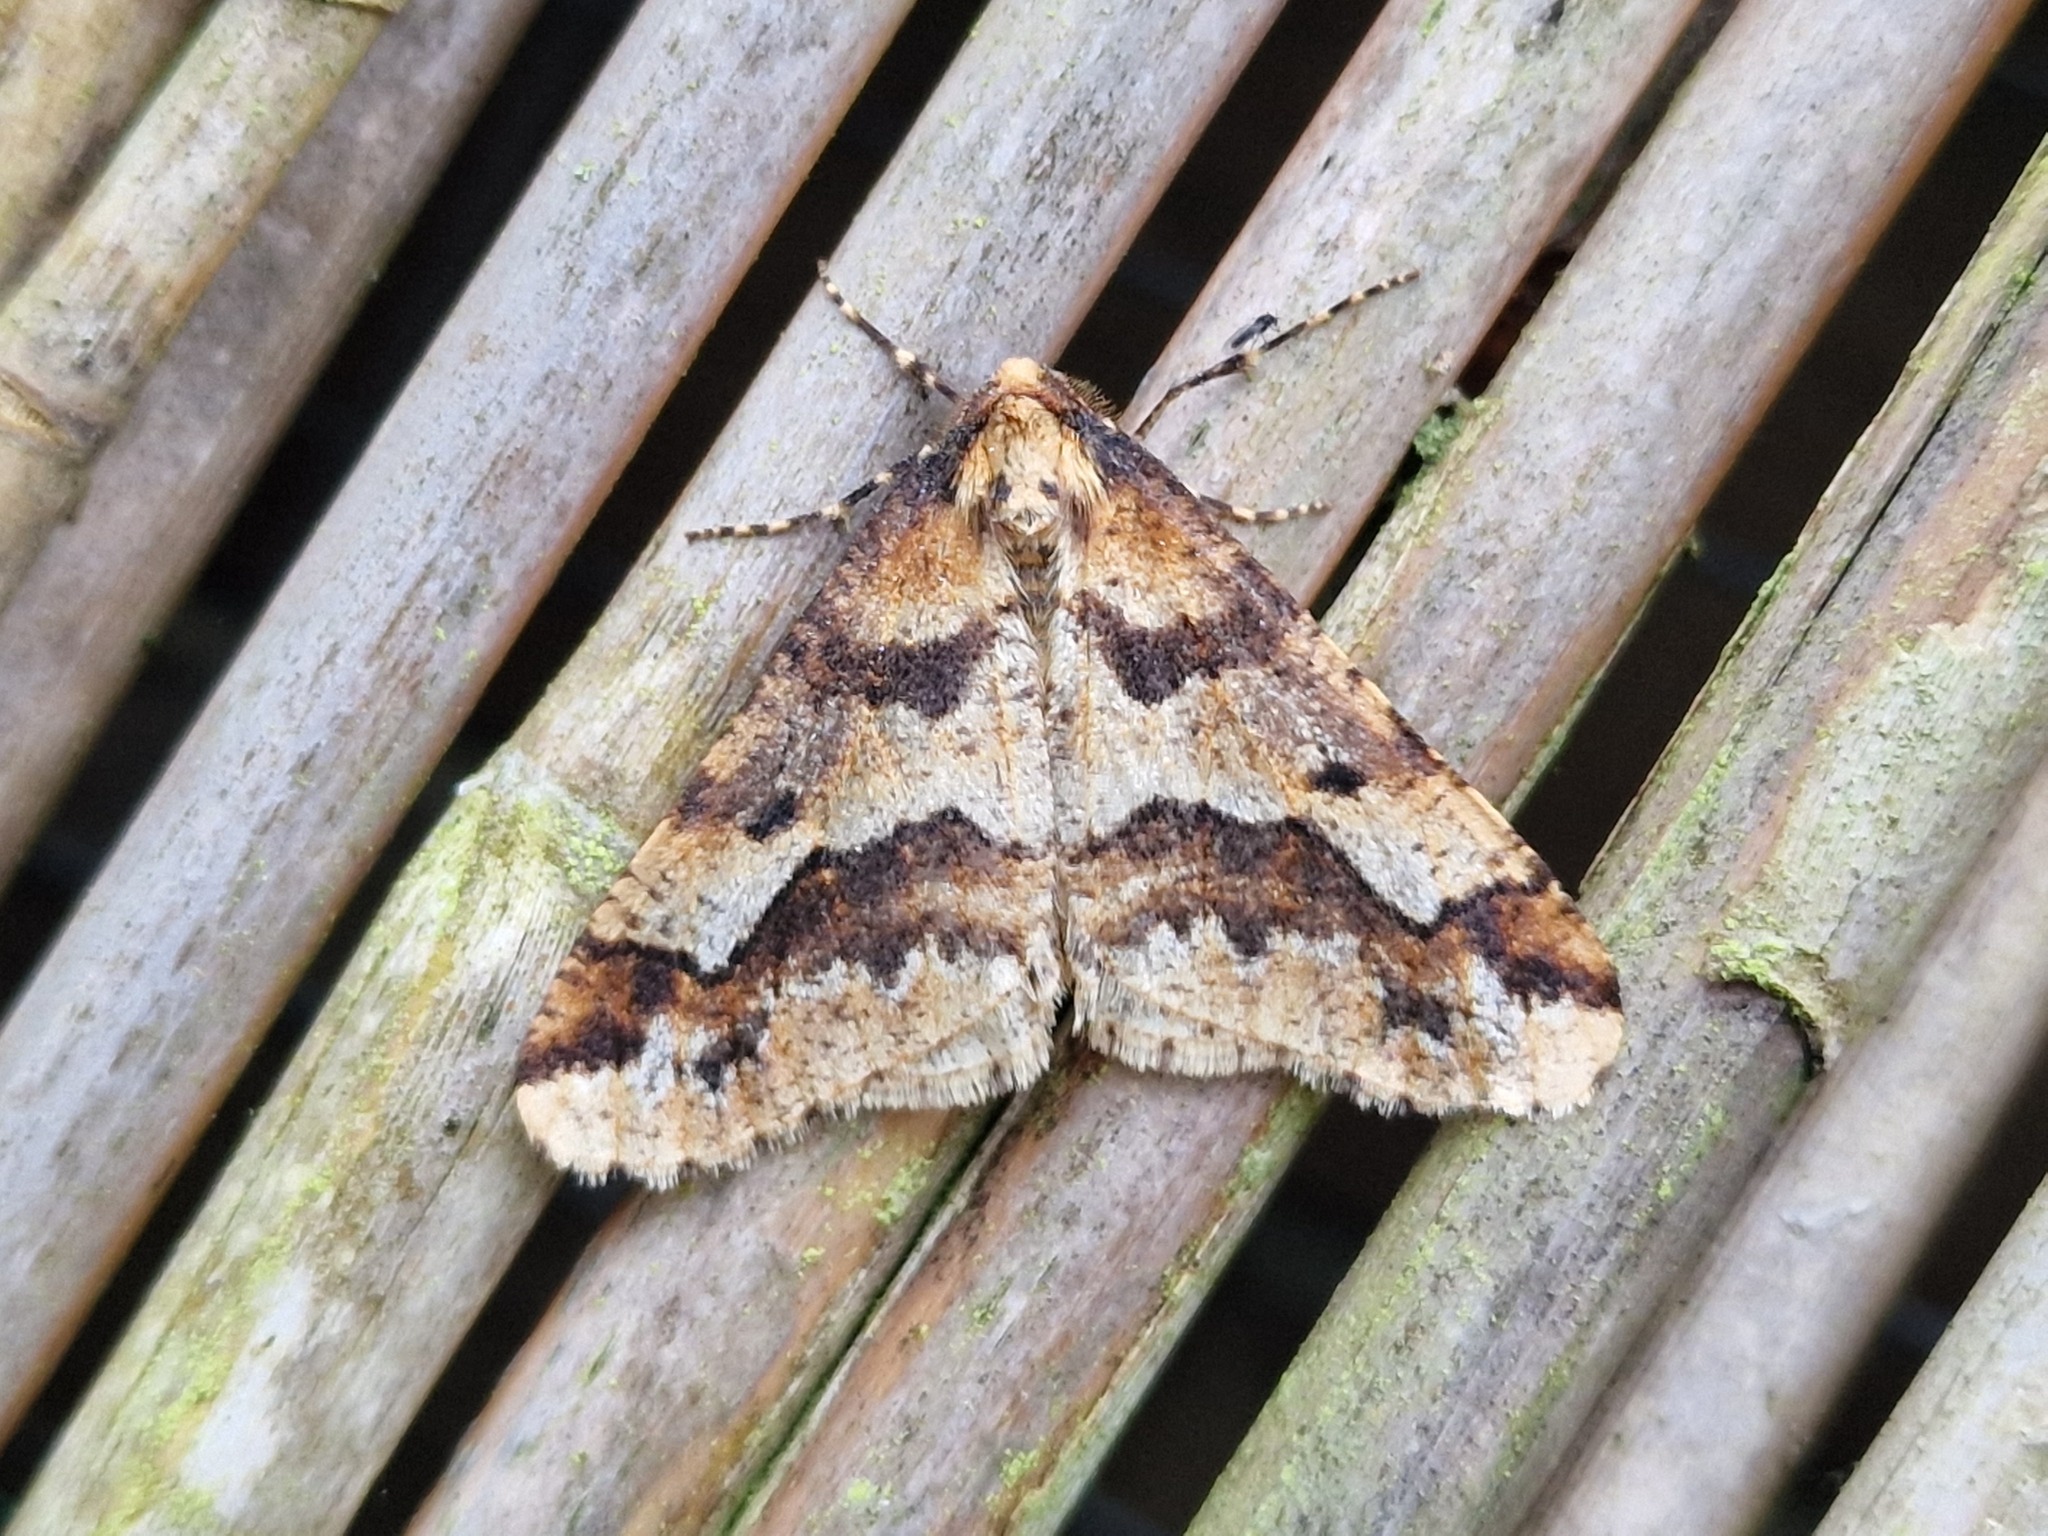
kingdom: Animalia
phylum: Arthropoda
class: Insecta
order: Lepidoptera
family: Geometridae
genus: Erannis
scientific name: Erannis defoliaria
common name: Mottled umber
